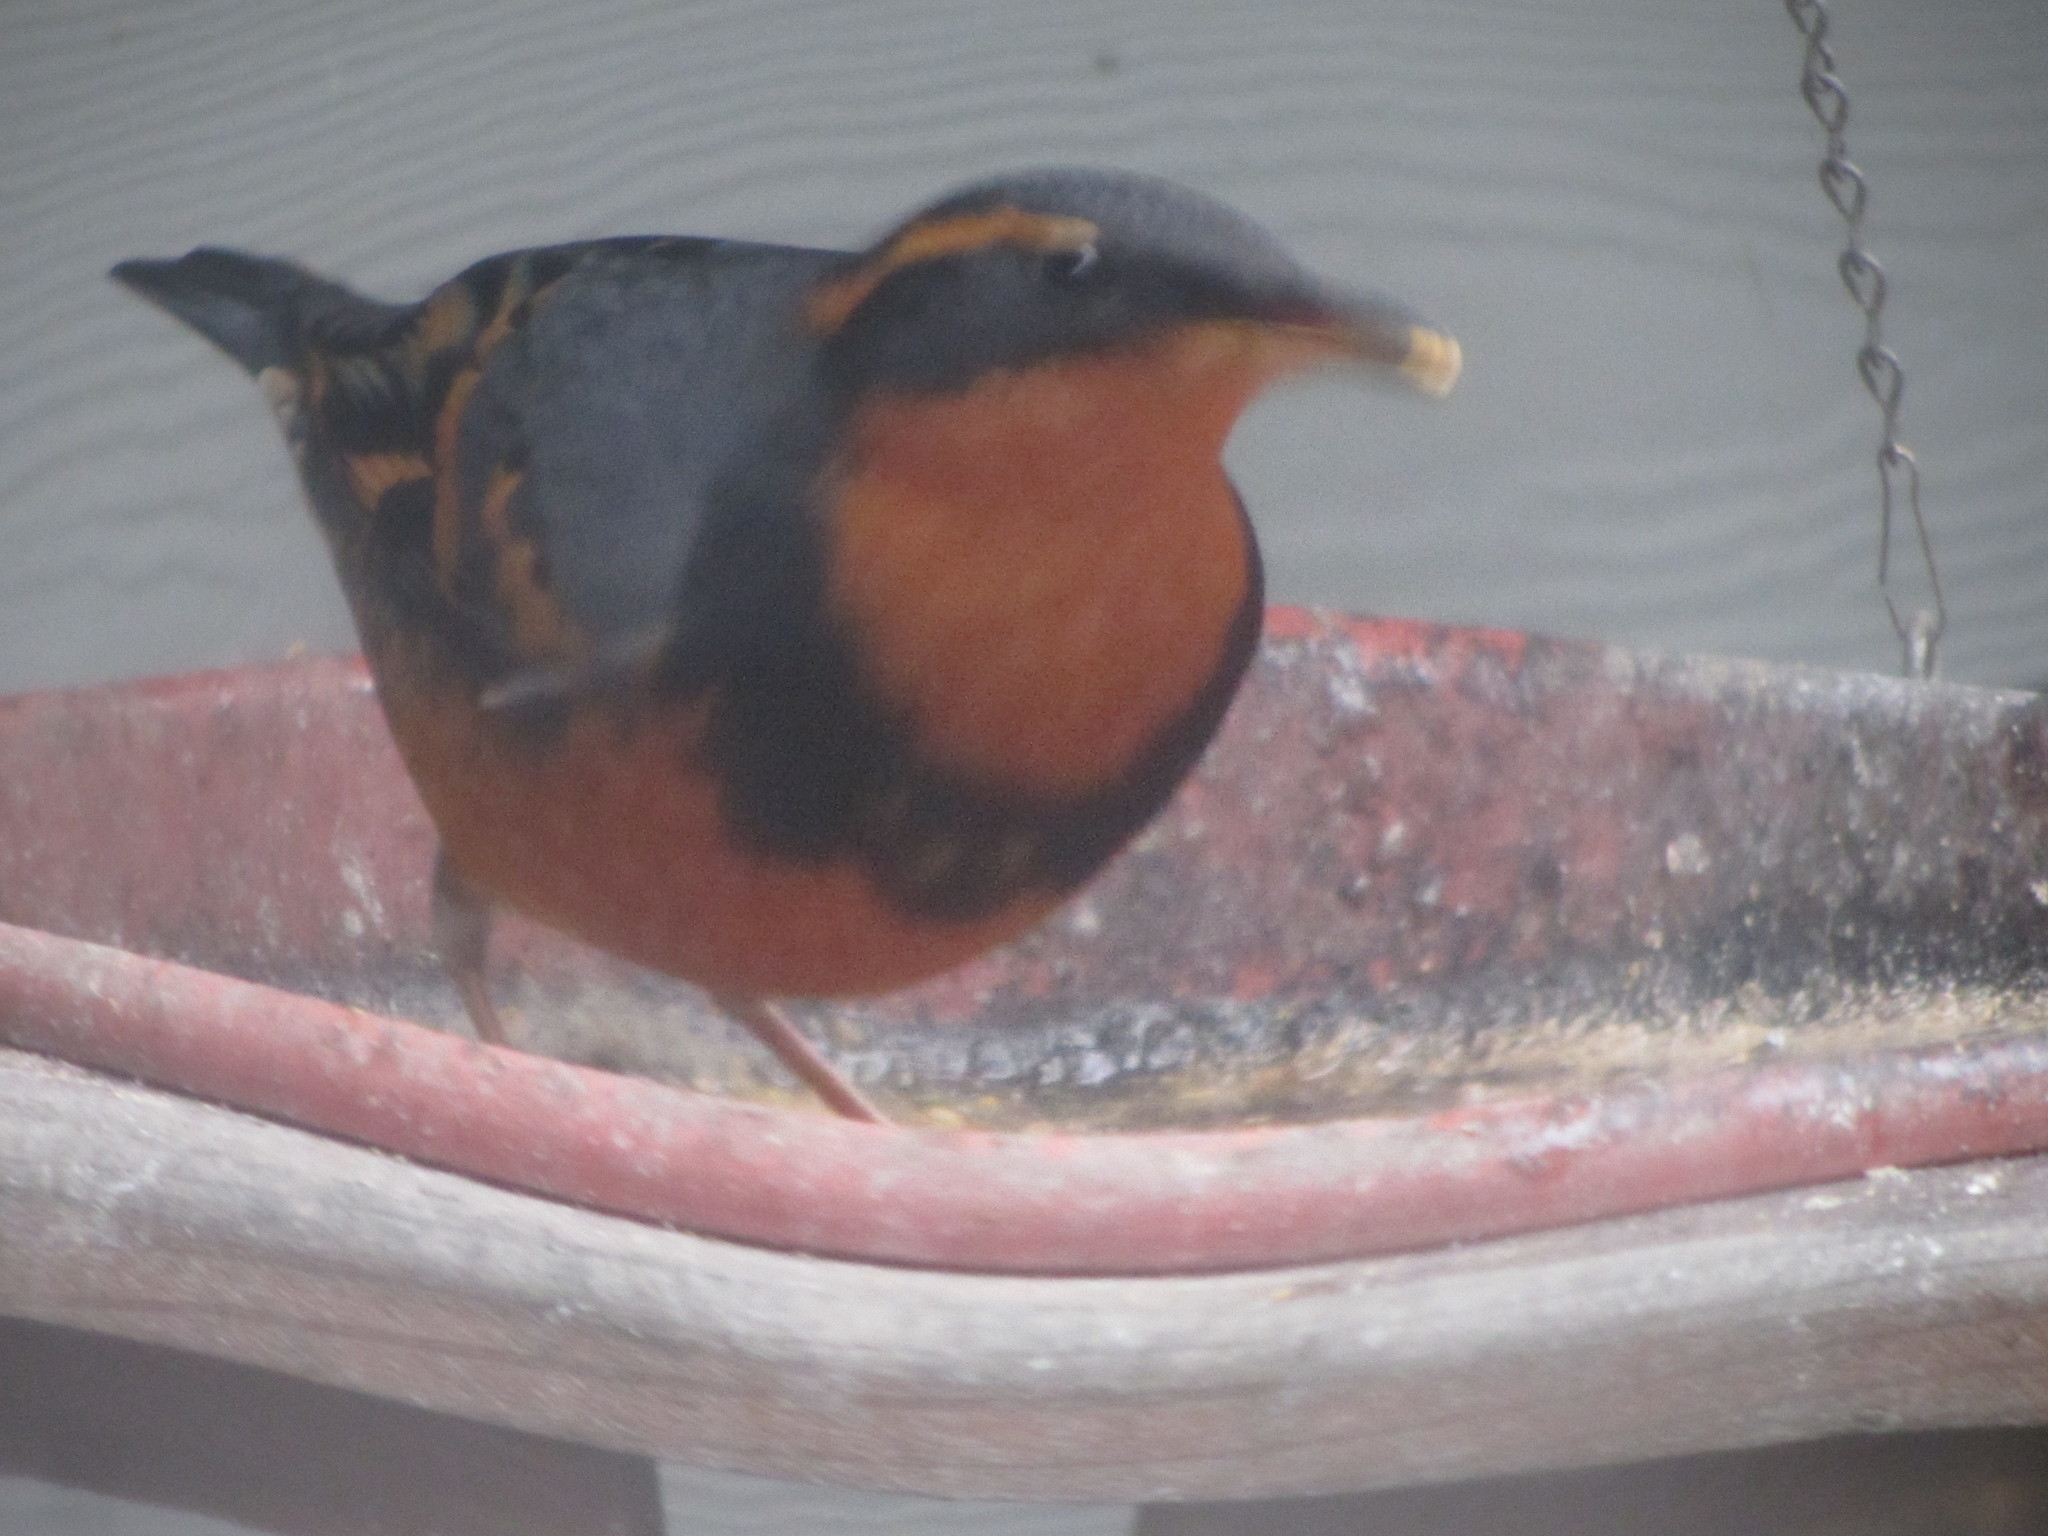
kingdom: Animalia
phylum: Chordata
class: Aves
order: Passeriformes
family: Turdidae
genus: Ixoreus
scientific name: Ixoreus naevius
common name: Varied thrush
